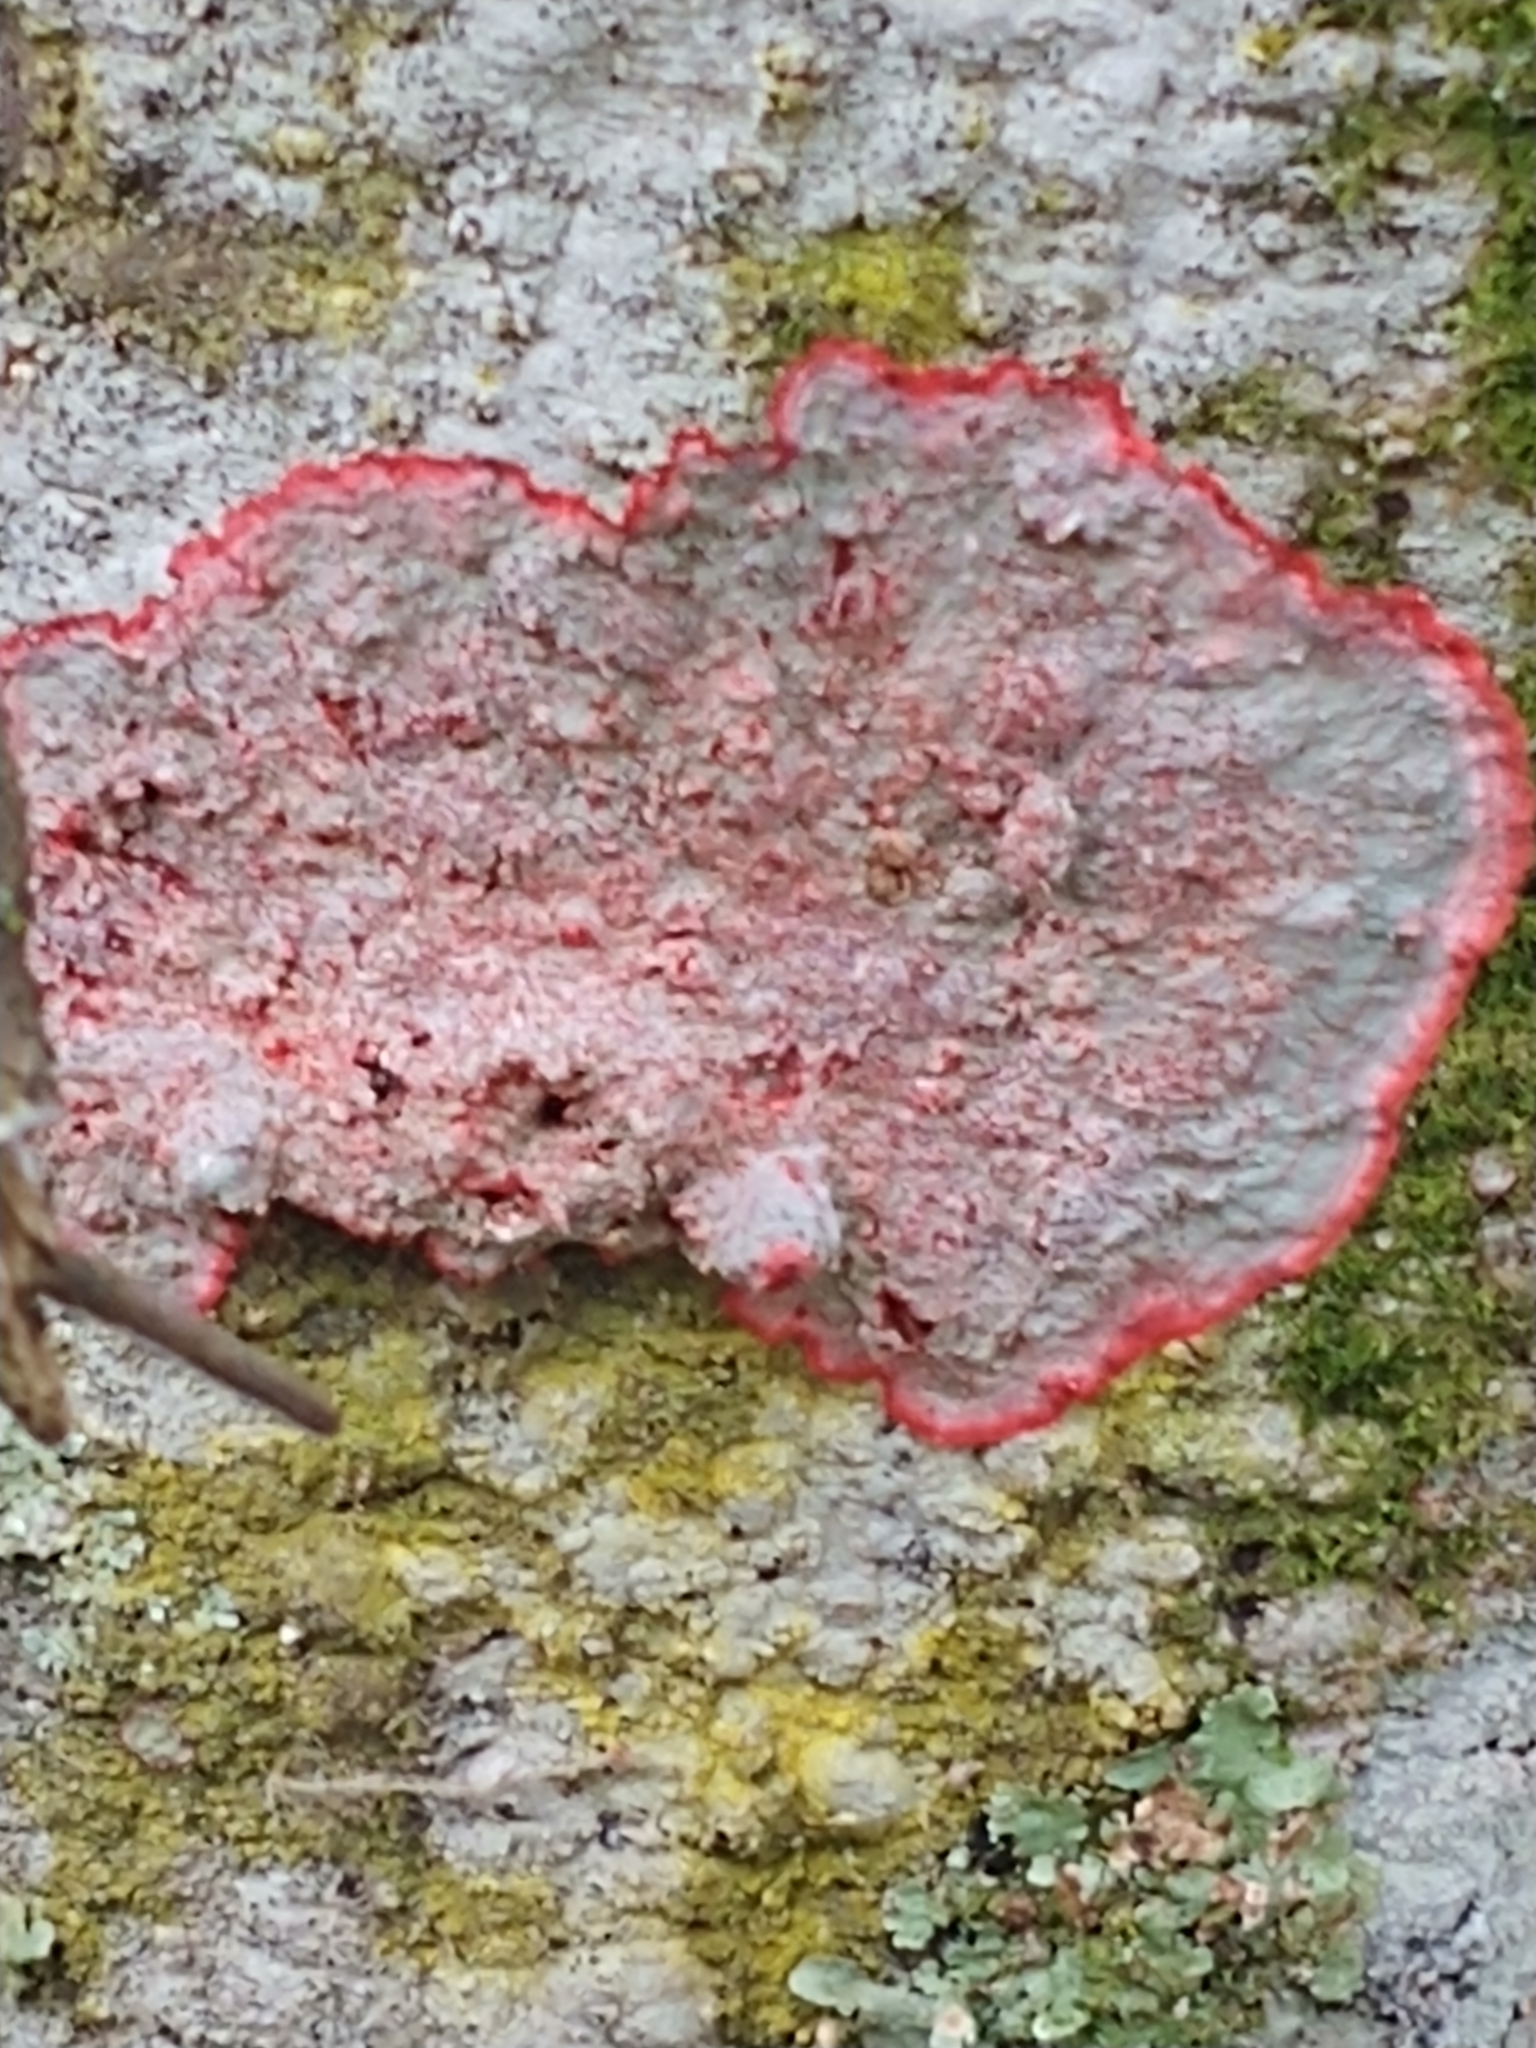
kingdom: Fungi
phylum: Ascomycota
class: Arthoniomycetes
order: Arthoniales
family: Arthoniaceae
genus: Herpothallon
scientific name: Herpothallon rubrocinctum
